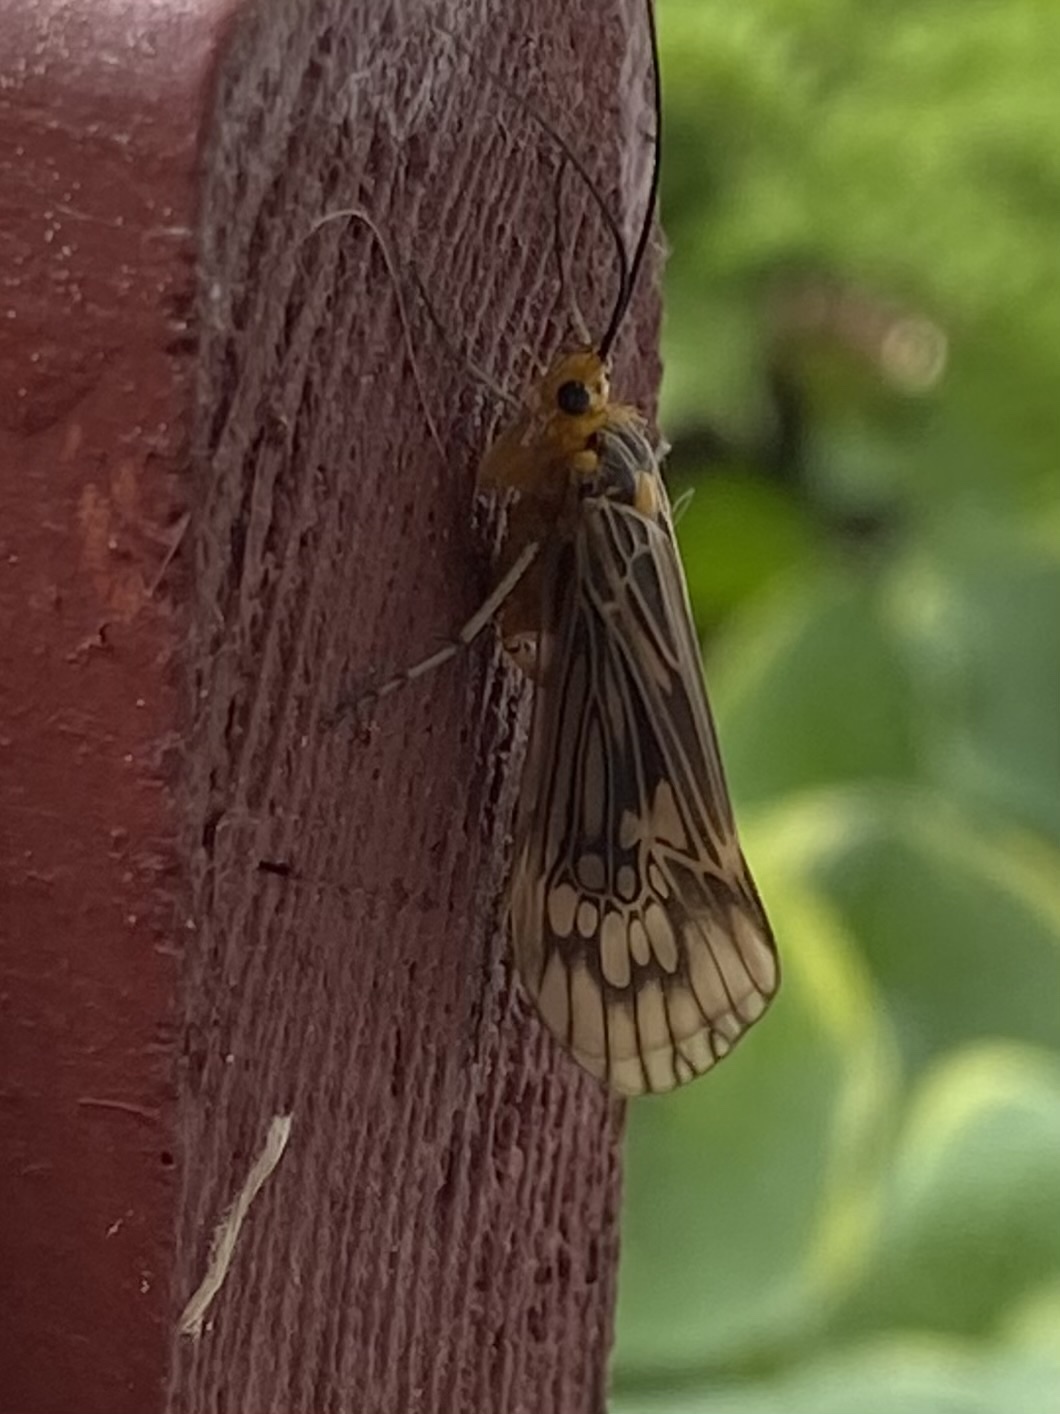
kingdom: Animalia
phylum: Arthropoda
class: Insecta
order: Trichoptera
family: Limnephilidae
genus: Hydatophylax
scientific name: Hydatophylax argus
